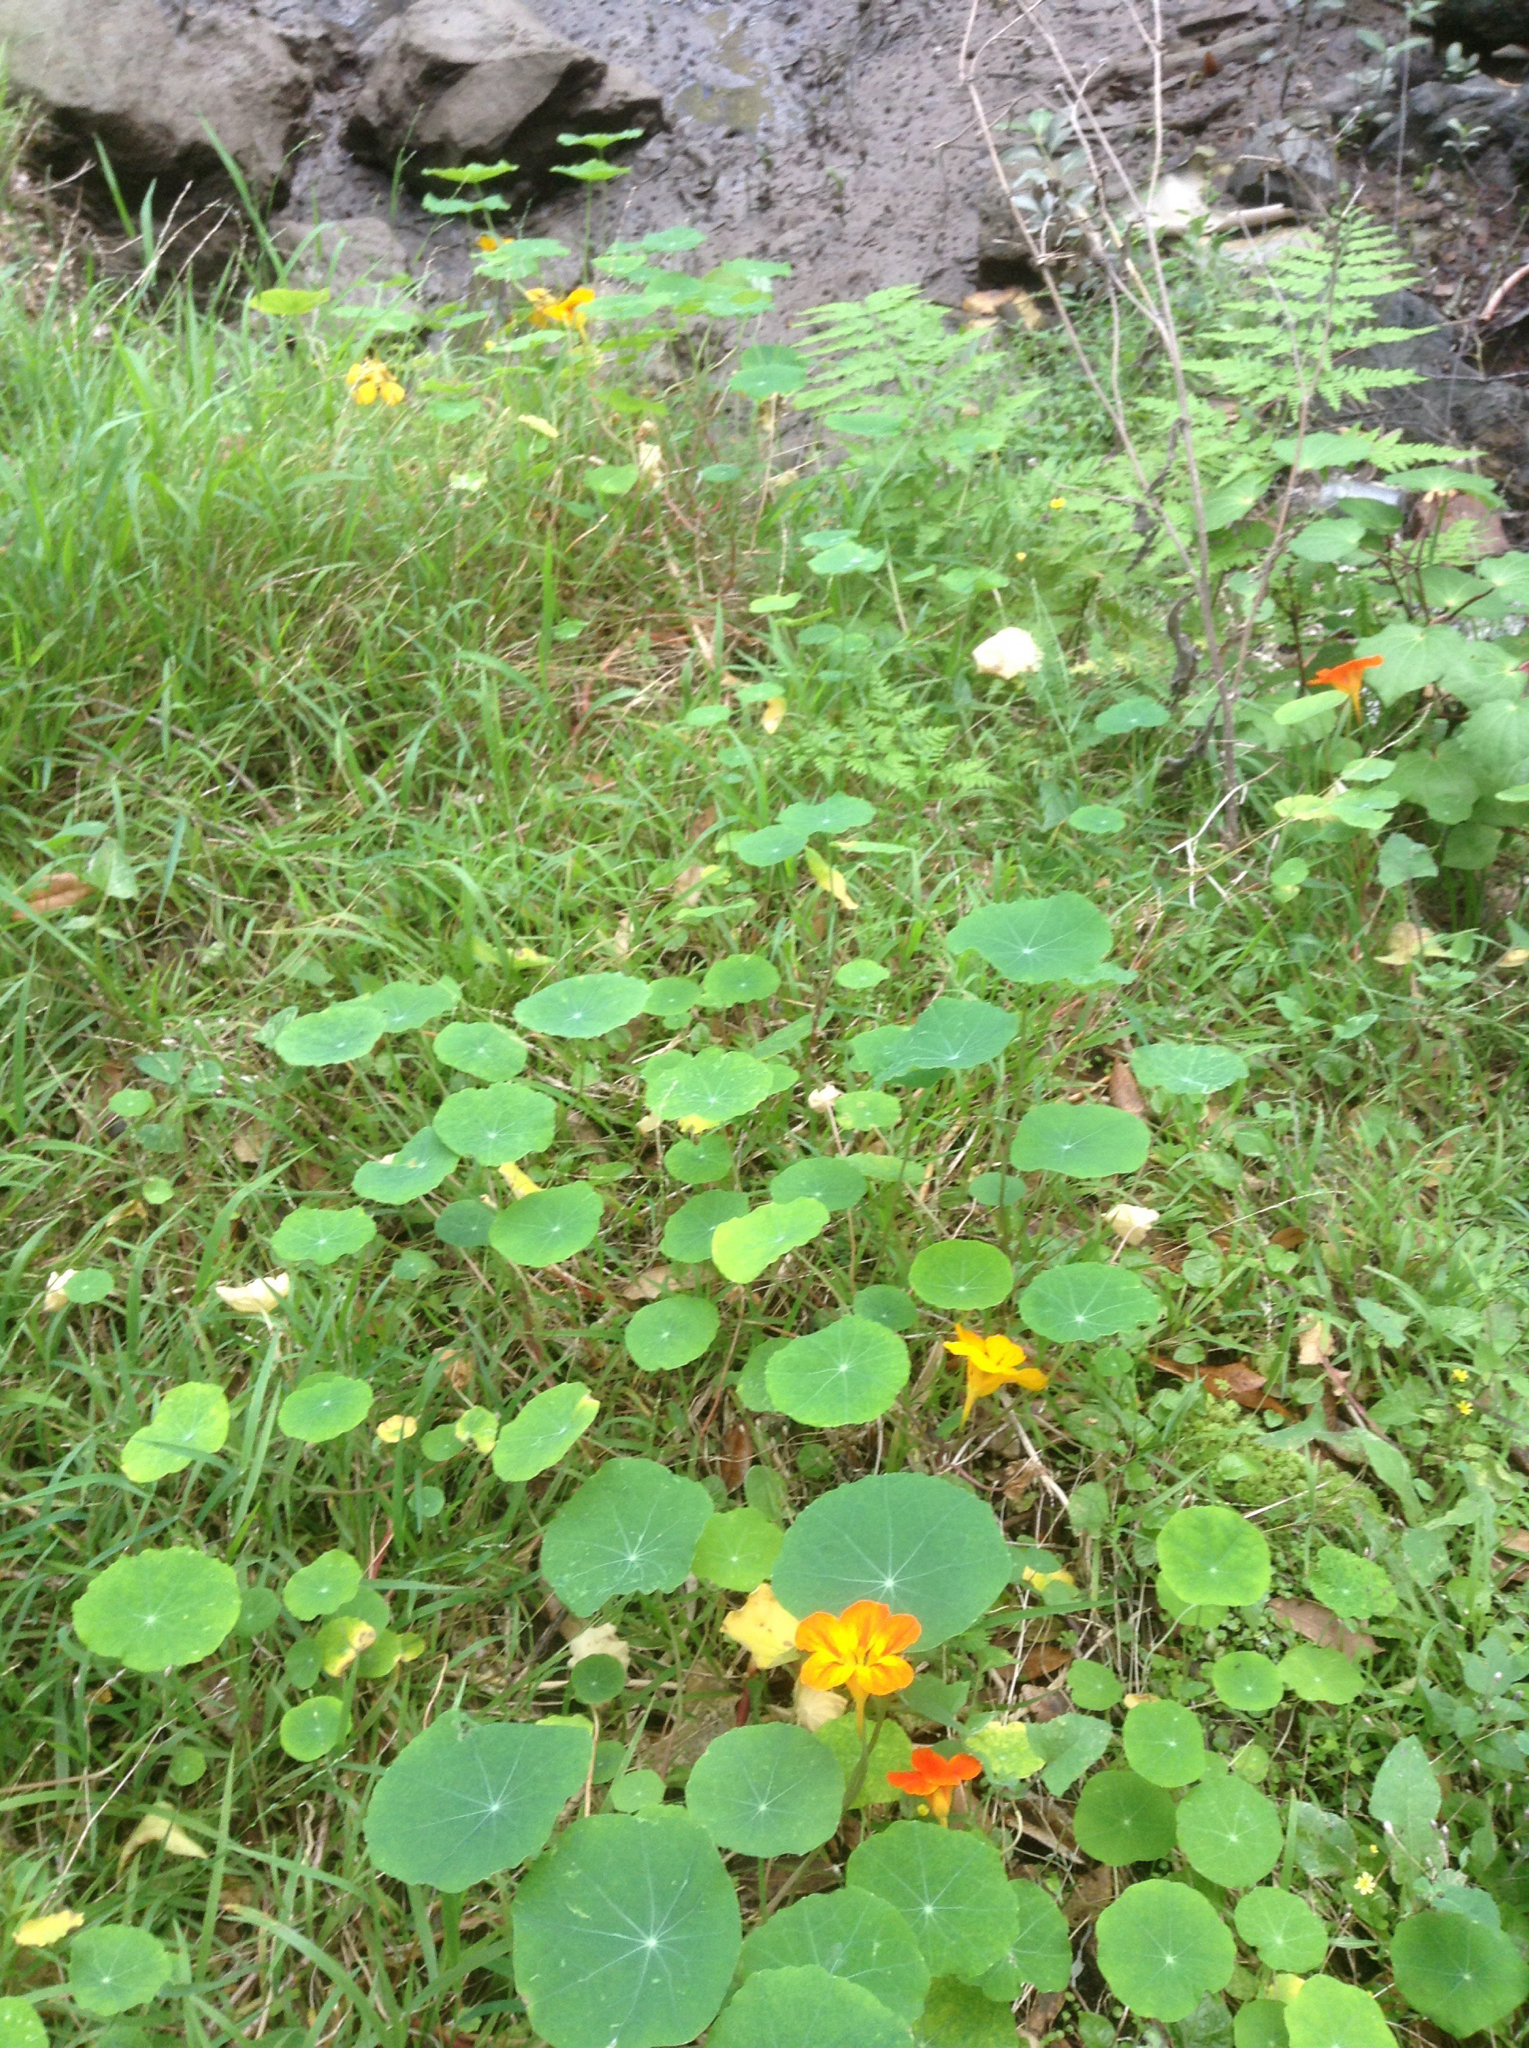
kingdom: Plantae
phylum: Tracheophyta
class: Magnoliopsida
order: Brassicales
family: Tropaeolaceae
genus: Tropaeolum
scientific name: Tropaeolum majus
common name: Nasturtium
